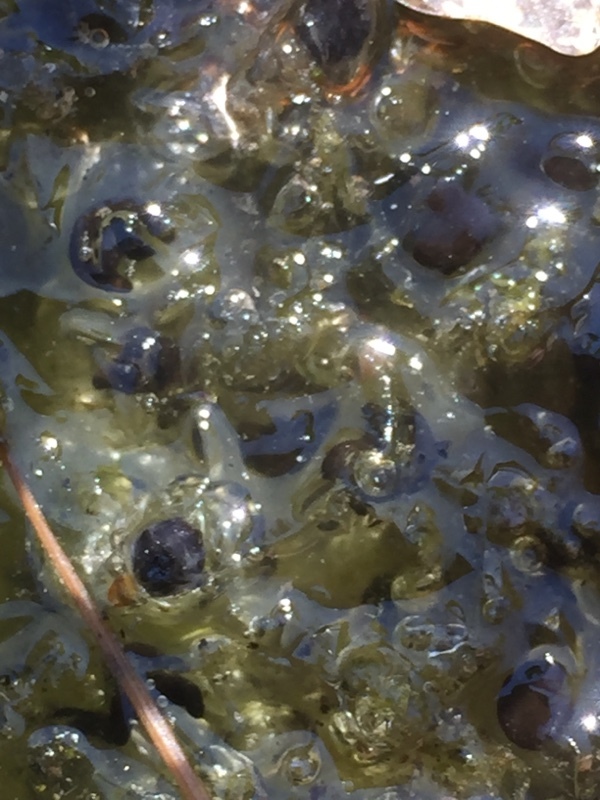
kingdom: Animalia
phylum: Chordata
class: Amphibia
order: Anura
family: Ranidae
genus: Rana
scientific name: Rana temporaria
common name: Common frog
